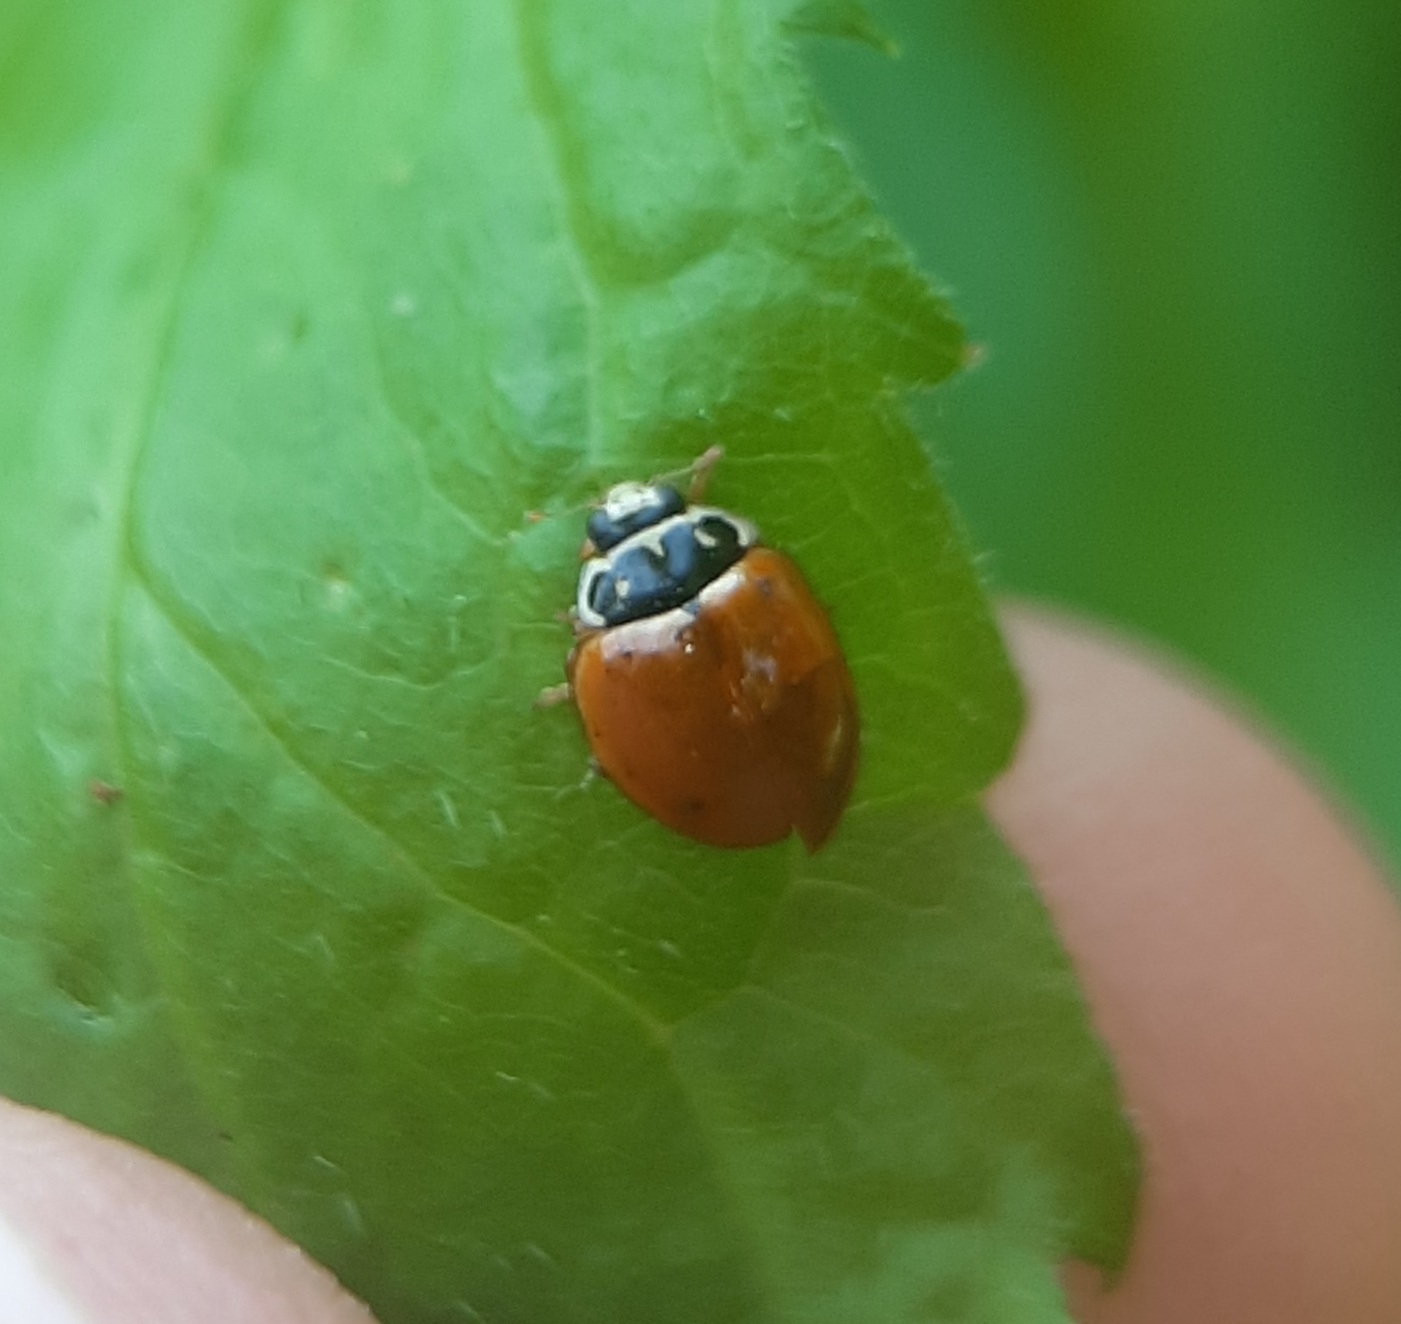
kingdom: Animalia
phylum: Arthropoda
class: Insecta
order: Coleoptera
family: Coccinellidae
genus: Cycloneda
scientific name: Cycloneda munda
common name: Polished lady beetle
